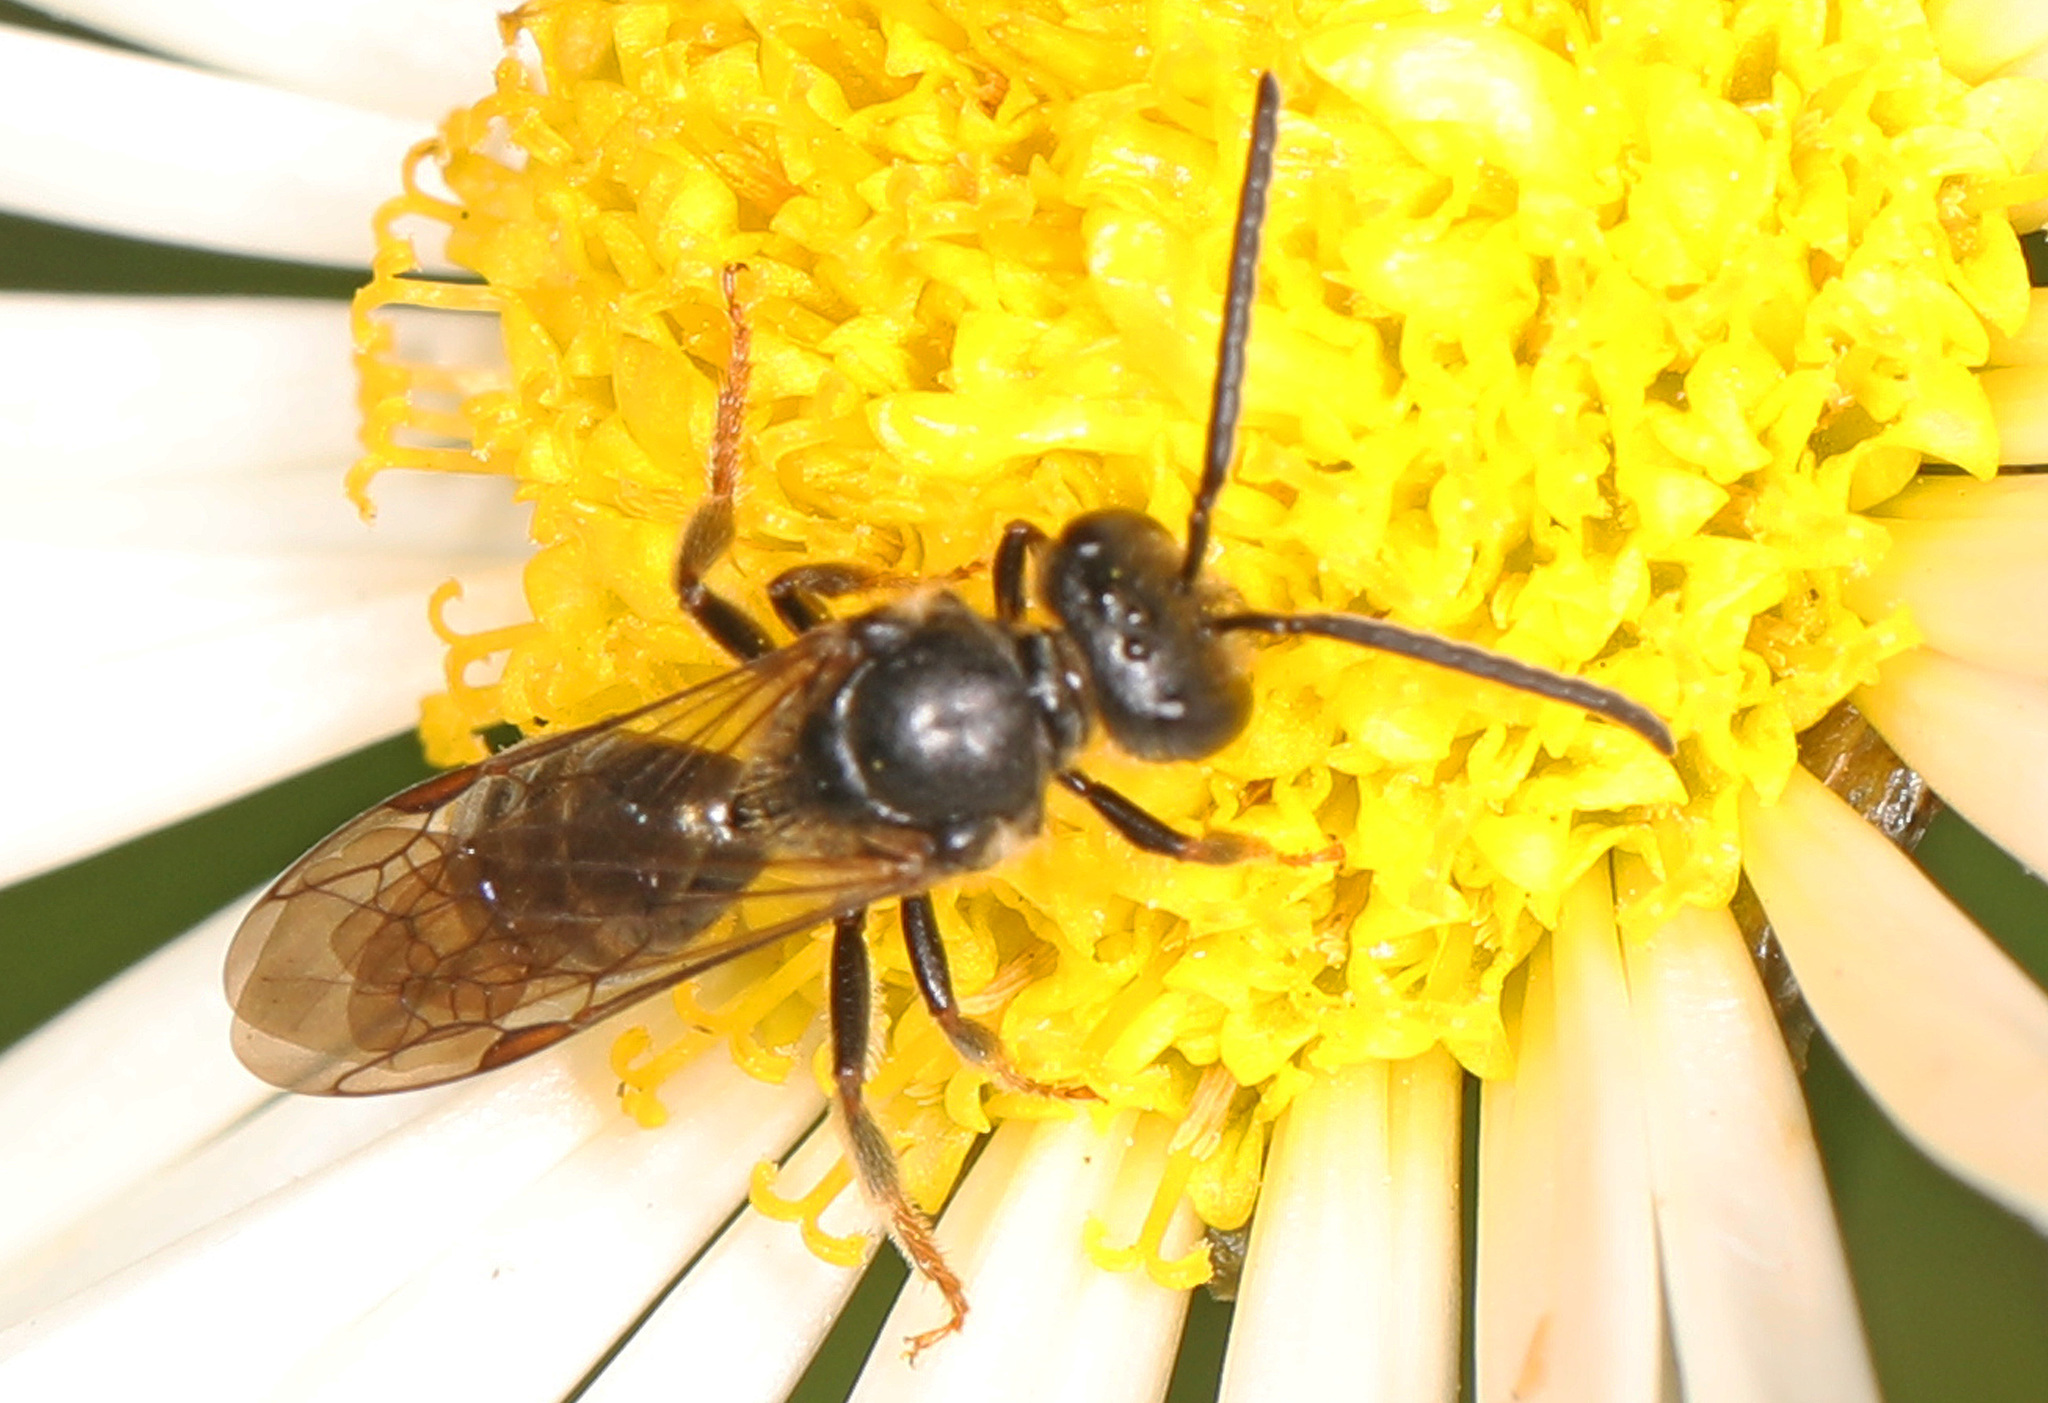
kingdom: Animalia
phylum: Arthropoda
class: Insecta
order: Hymenoptera
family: Halictidae
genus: Lasioglossum
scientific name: Lasioglossum fuscipenne
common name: Brown-winged sweat bee
